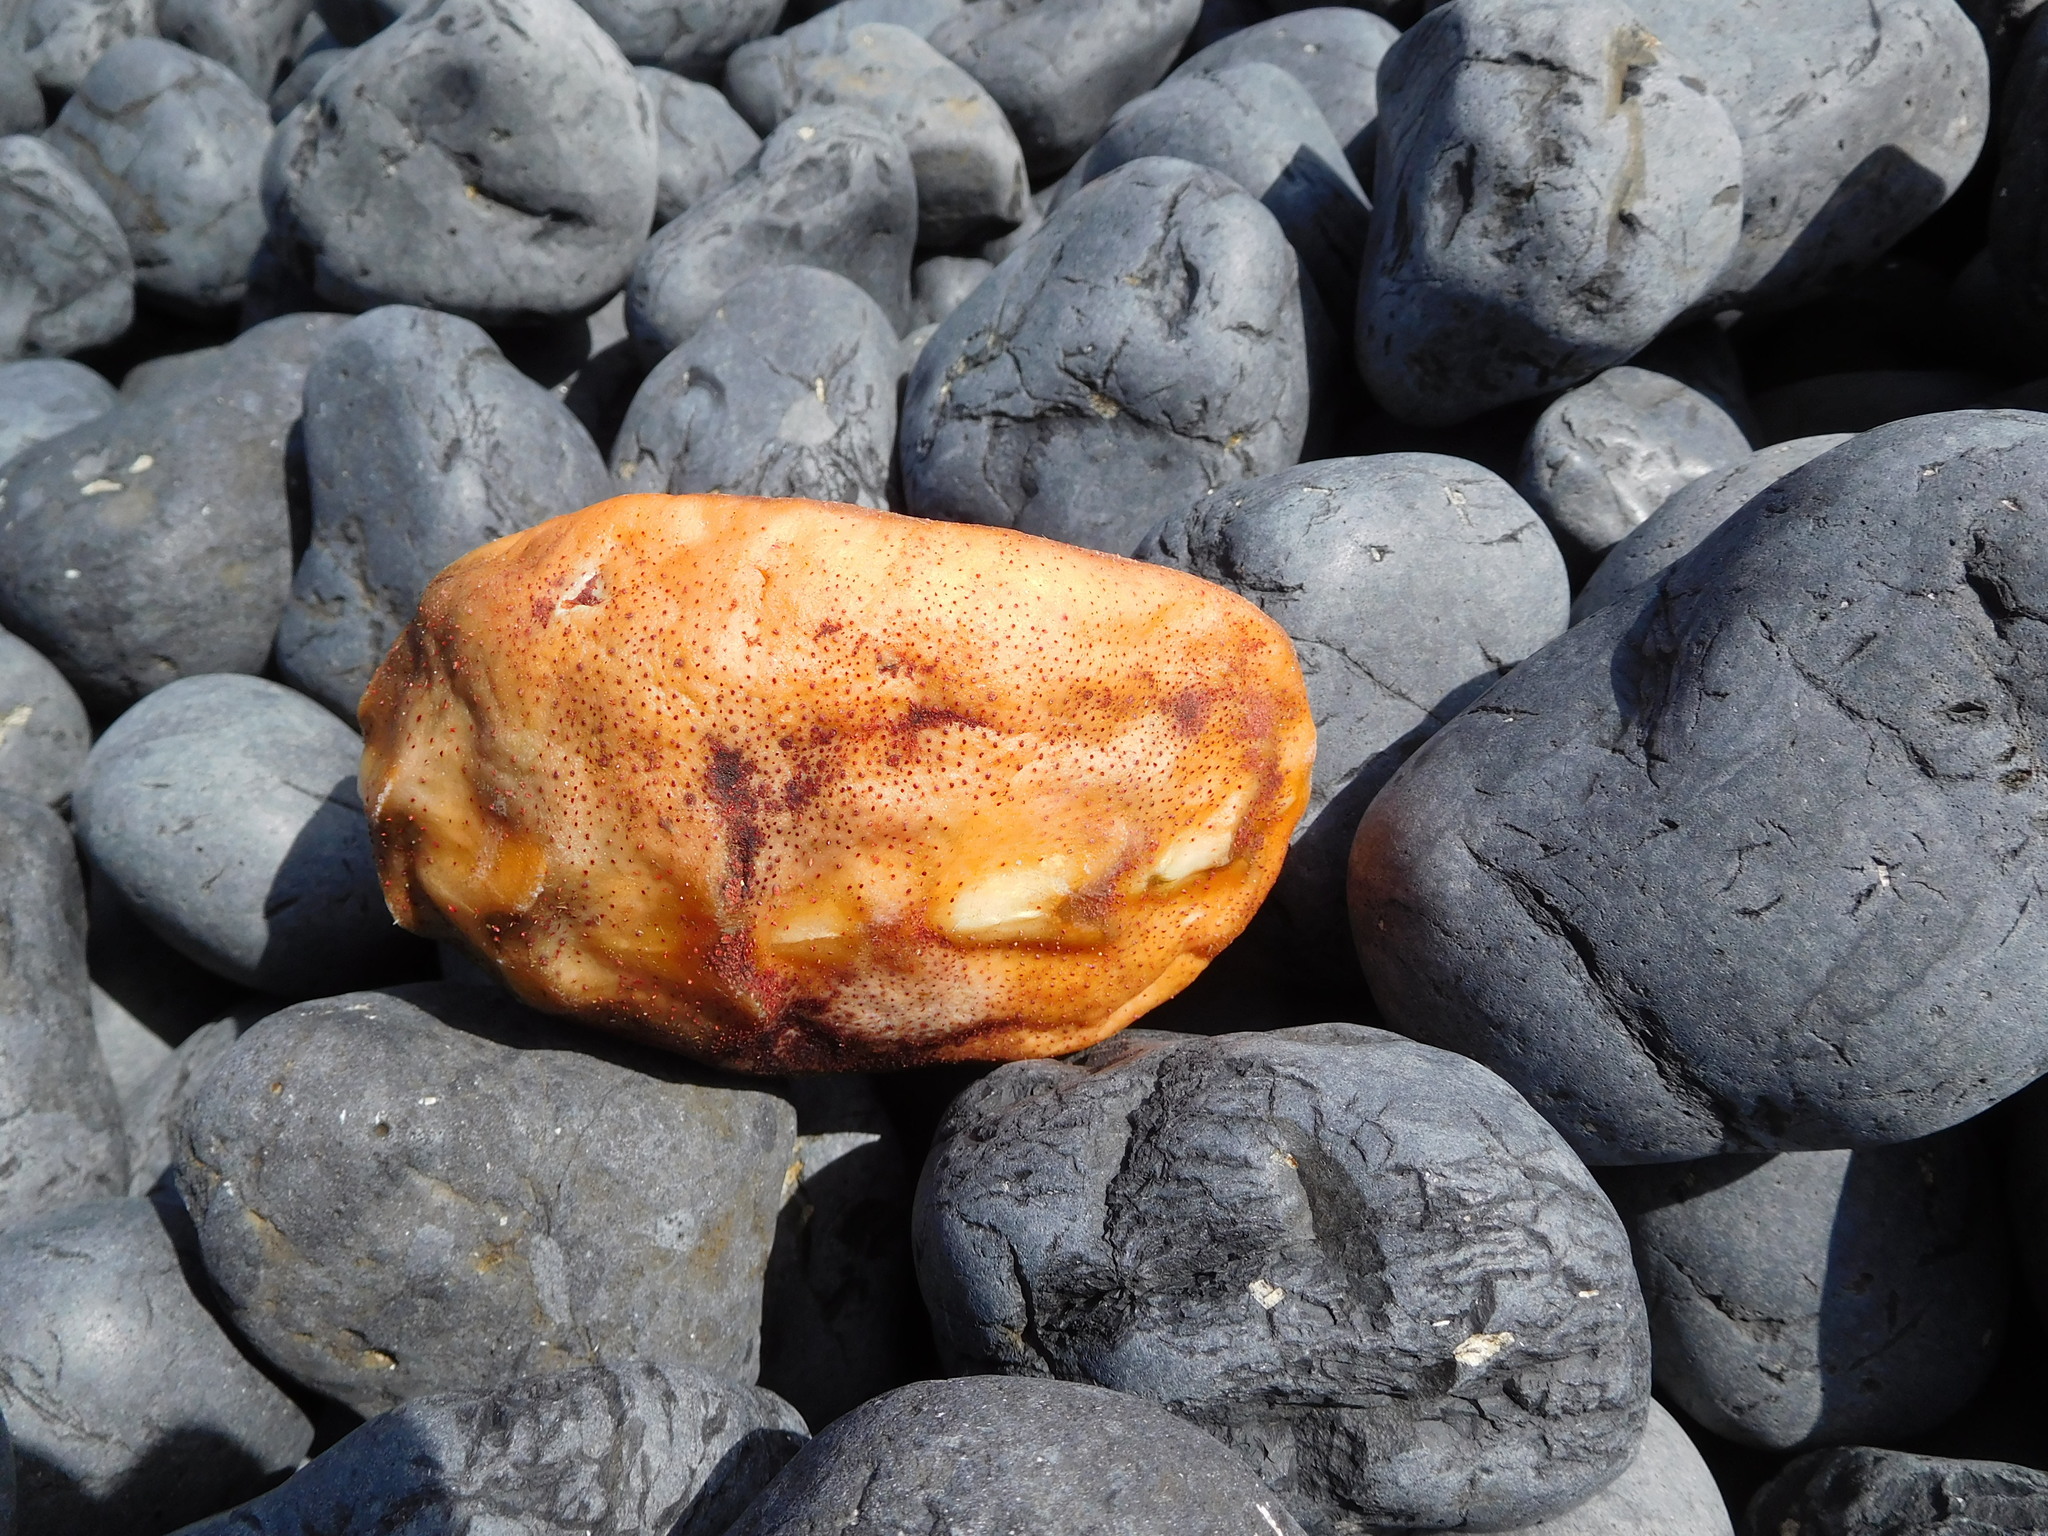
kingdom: Animalia
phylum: Mollusca
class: Polyplacophora
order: Chitonida
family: Acanthochitonidae
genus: Cryptochiton
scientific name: Cryptochiton stelleri
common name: Giant pacific chiton
